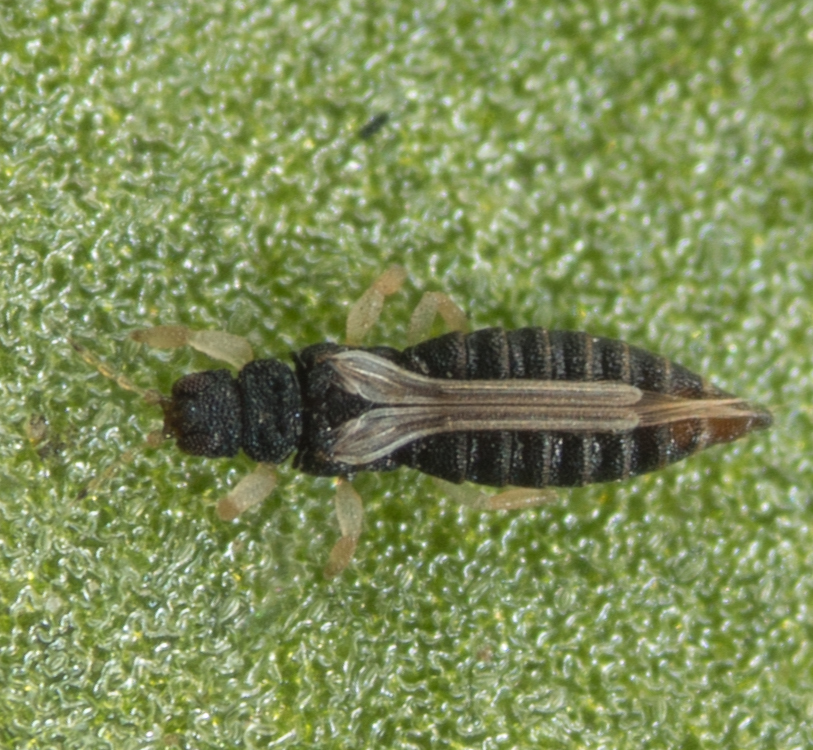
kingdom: Animalia
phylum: Arthropoda
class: Insecta
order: Thysanoptera
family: Thripidae
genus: Heliothrips
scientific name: Heliothrips haemorrhoidalis
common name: Thrips
